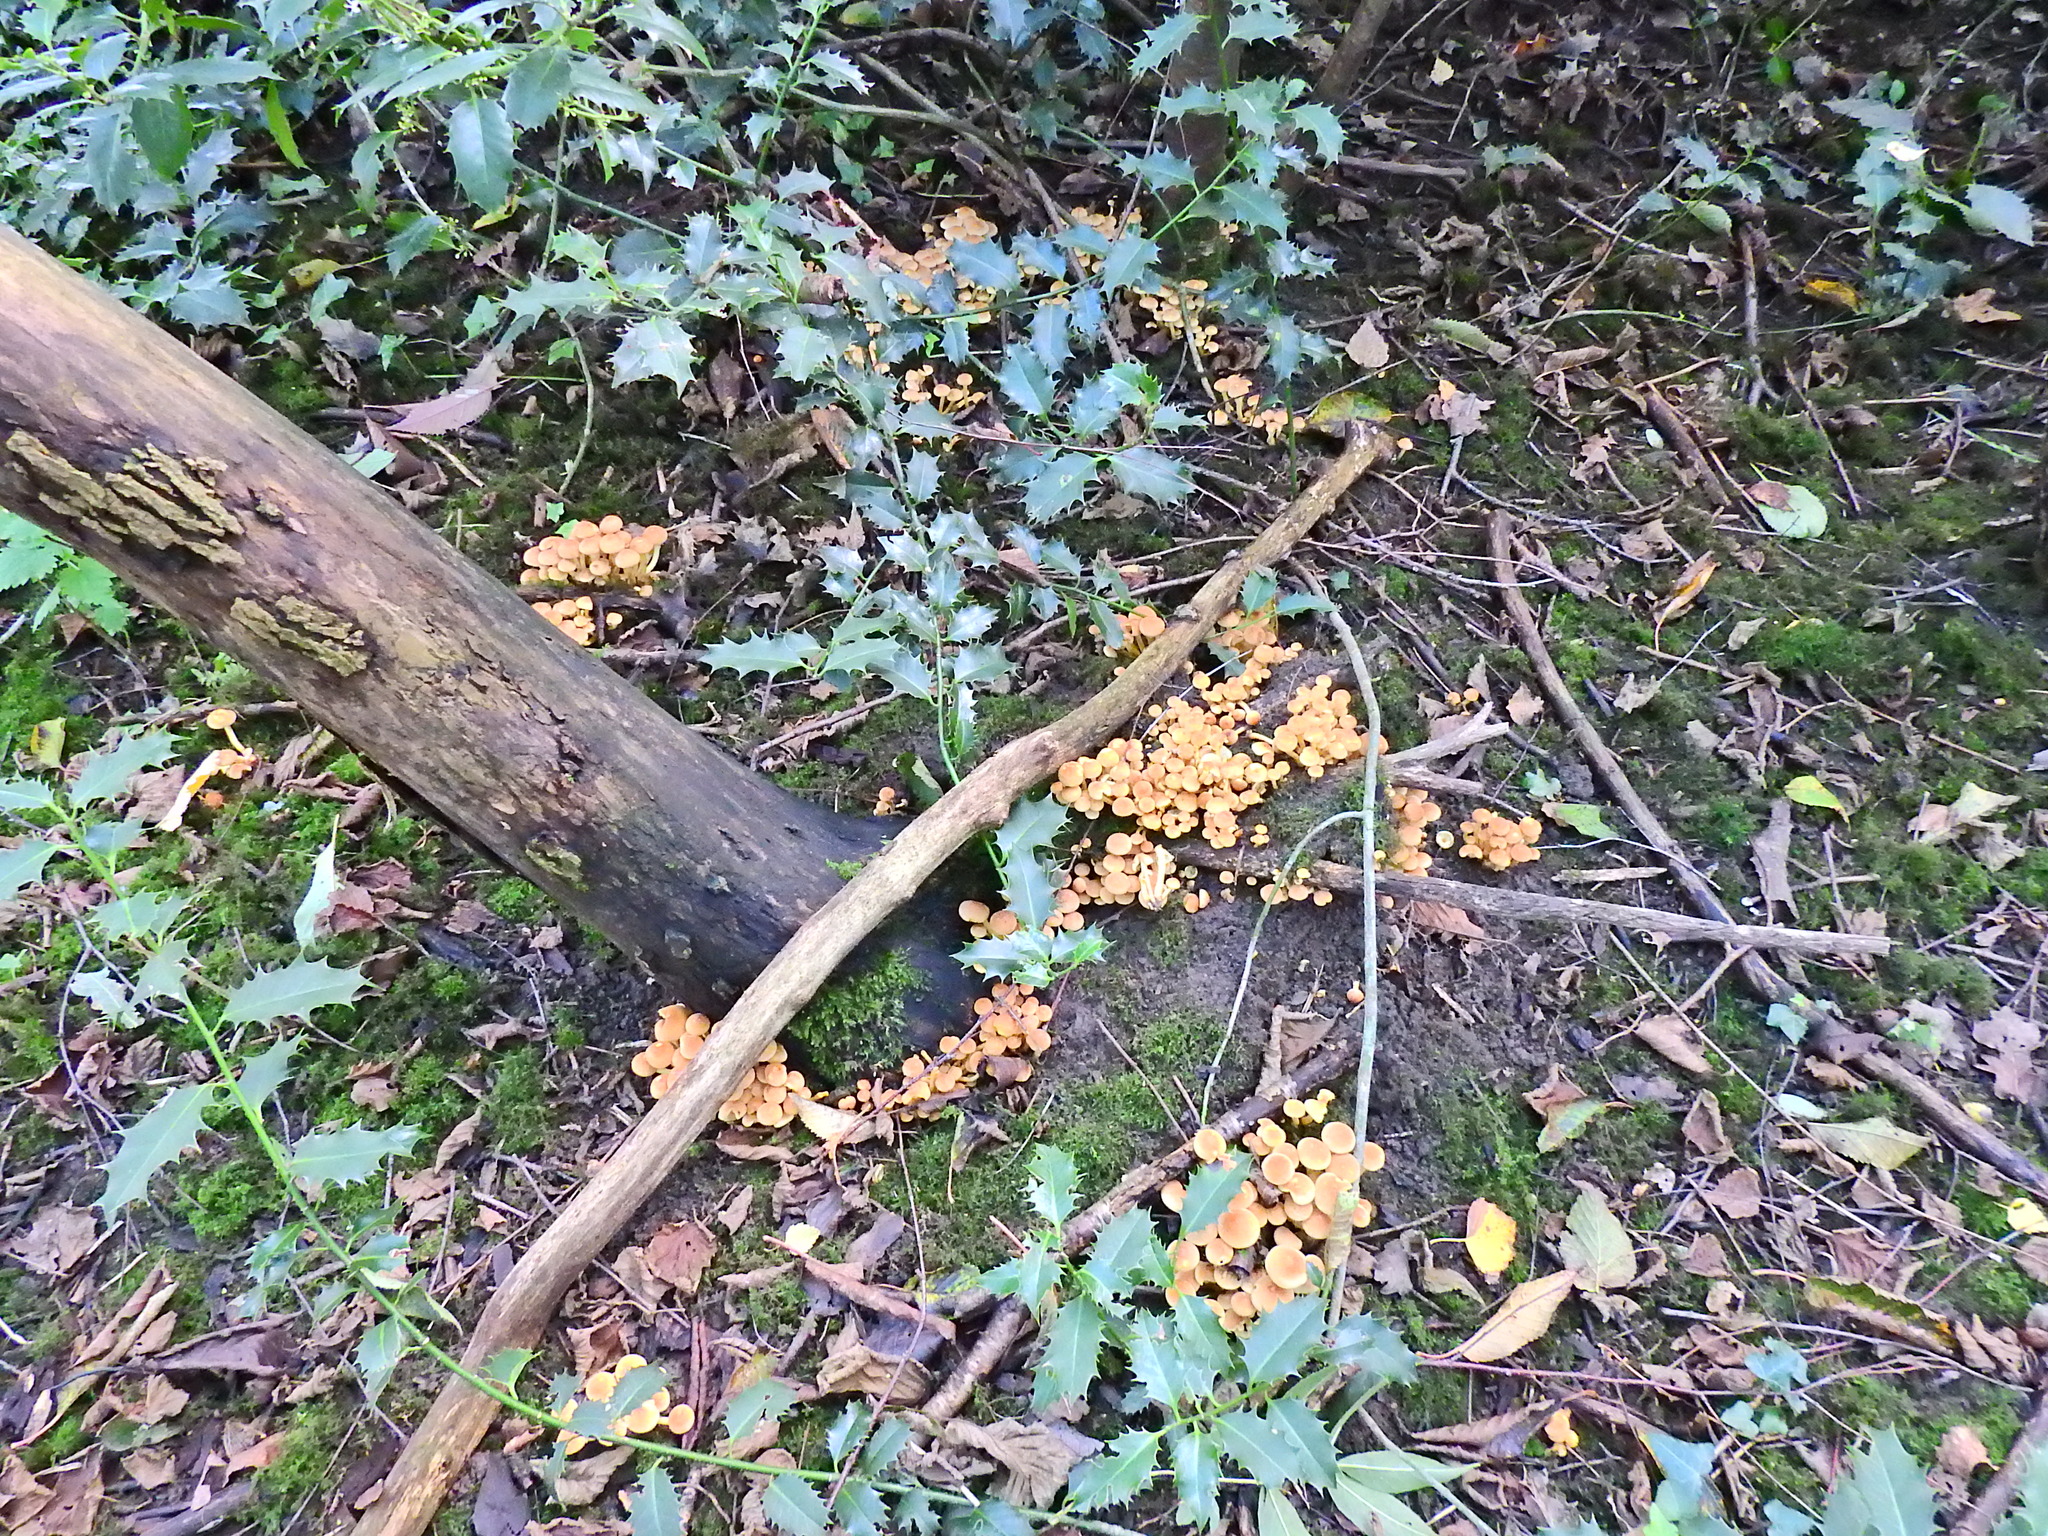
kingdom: Fungi
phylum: Basidiomycota
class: Agaricomycetes
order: Agaricales
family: Strophariaceae
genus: Hypholoma
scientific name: Hypholoma fasciculare
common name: Sulphur tuft
